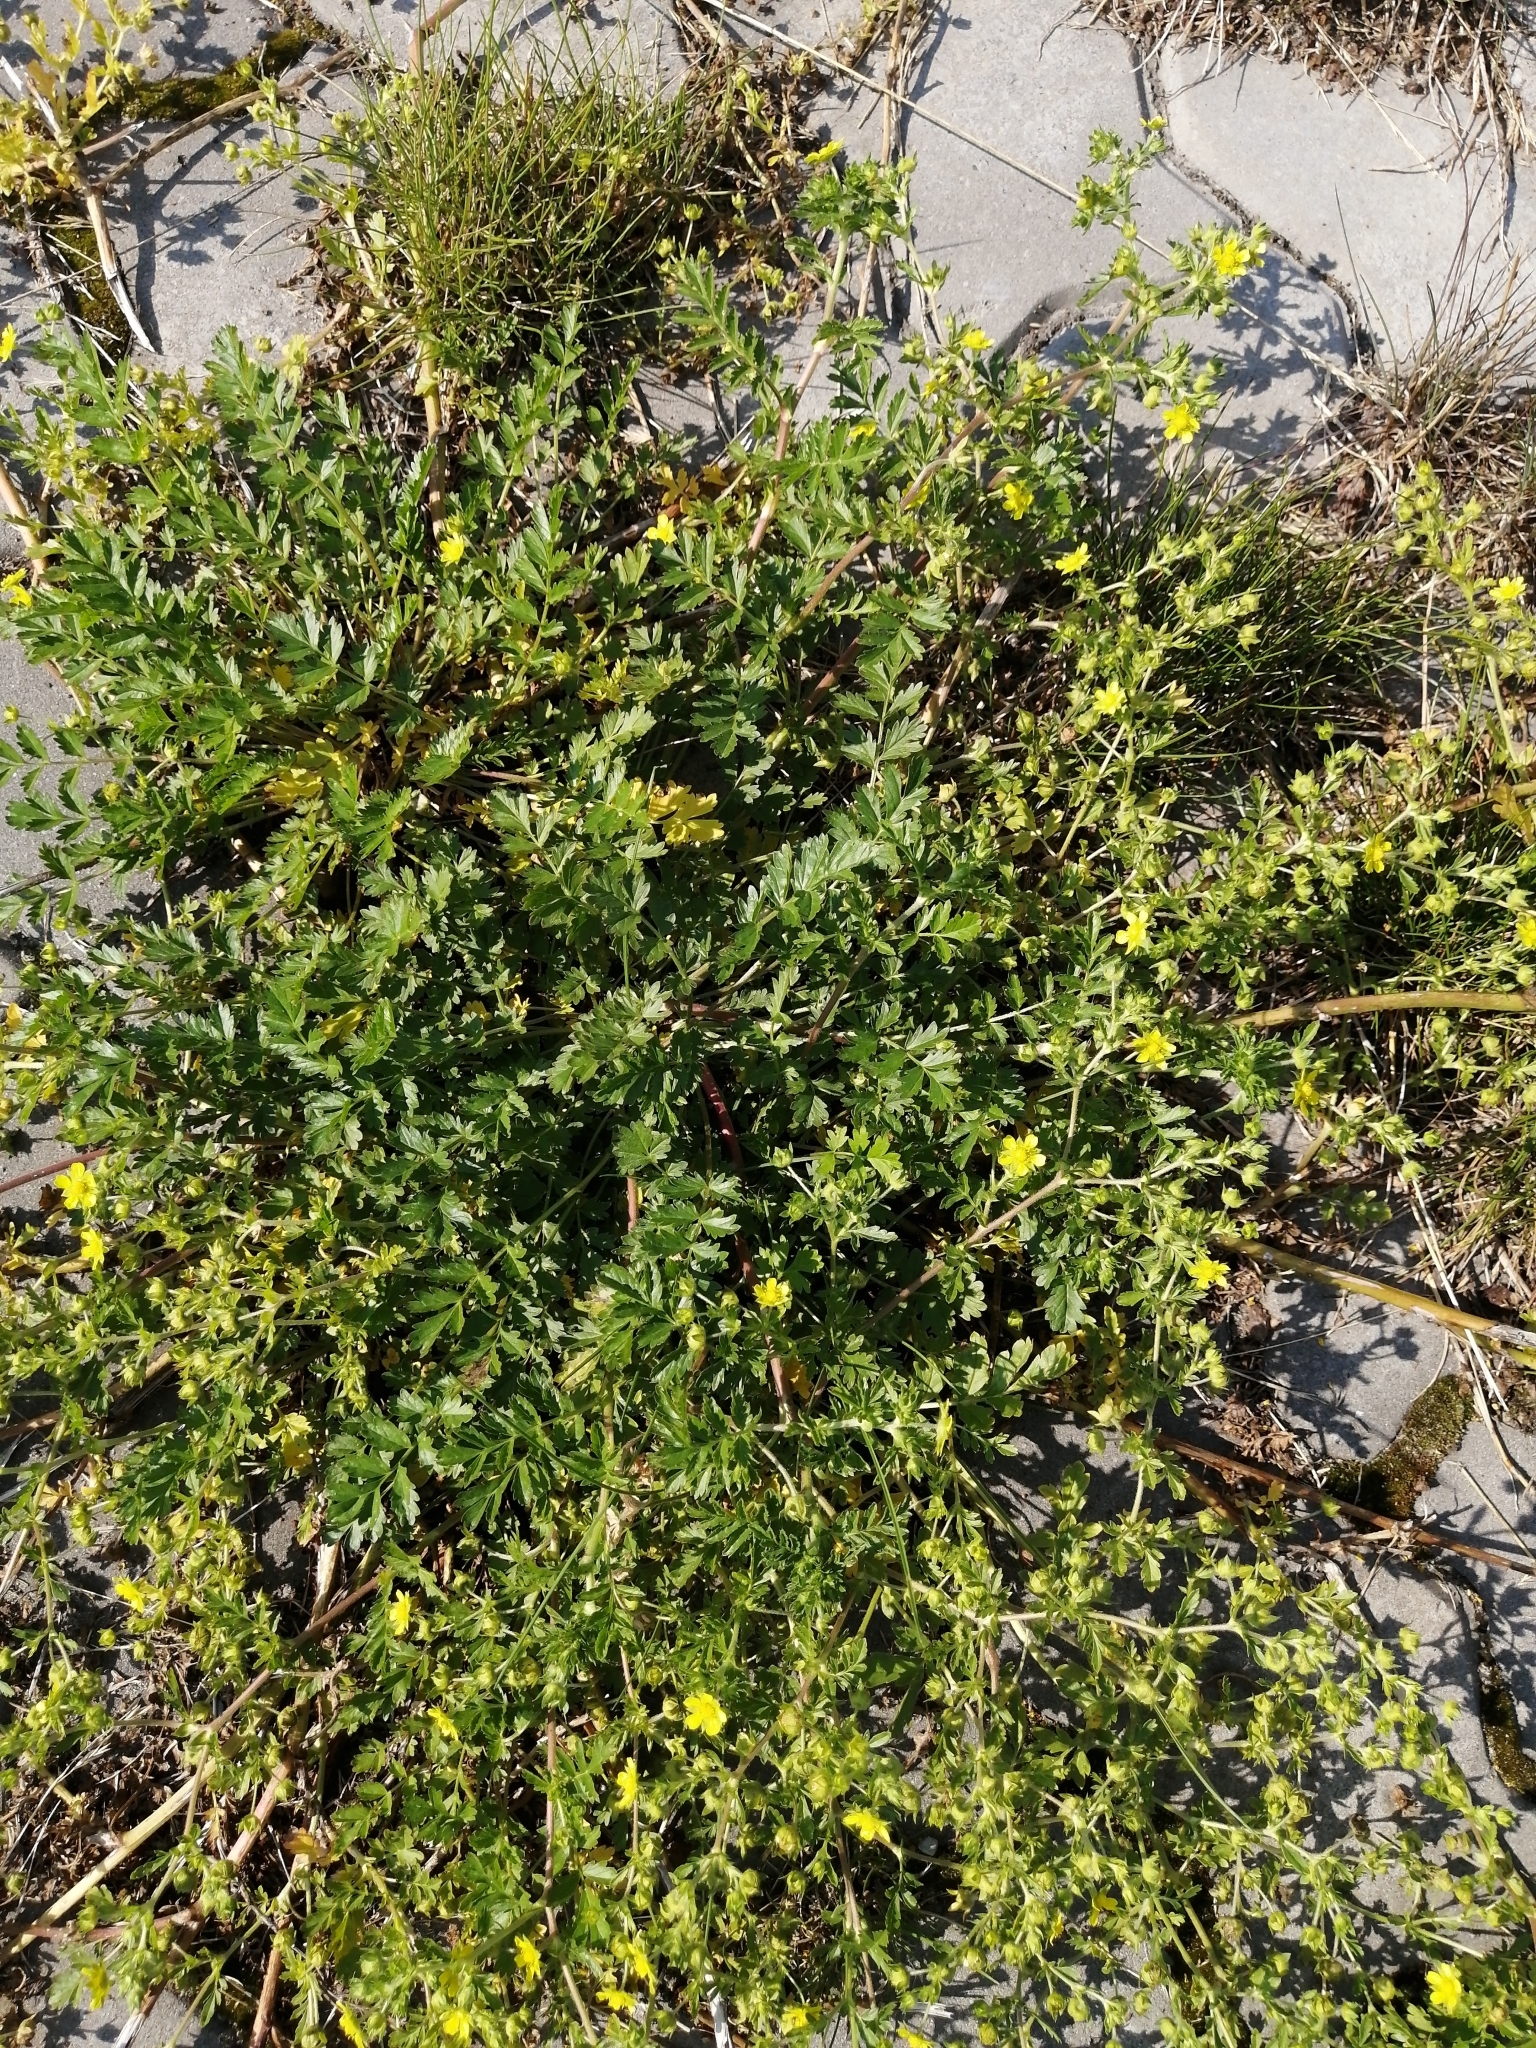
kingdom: Plantae
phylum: Tracheophyta
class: Magnoliopsida
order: Rosales
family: Rosaceae
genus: Potentilla
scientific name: Potentilla supina
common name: Prostrate cinquefoil
